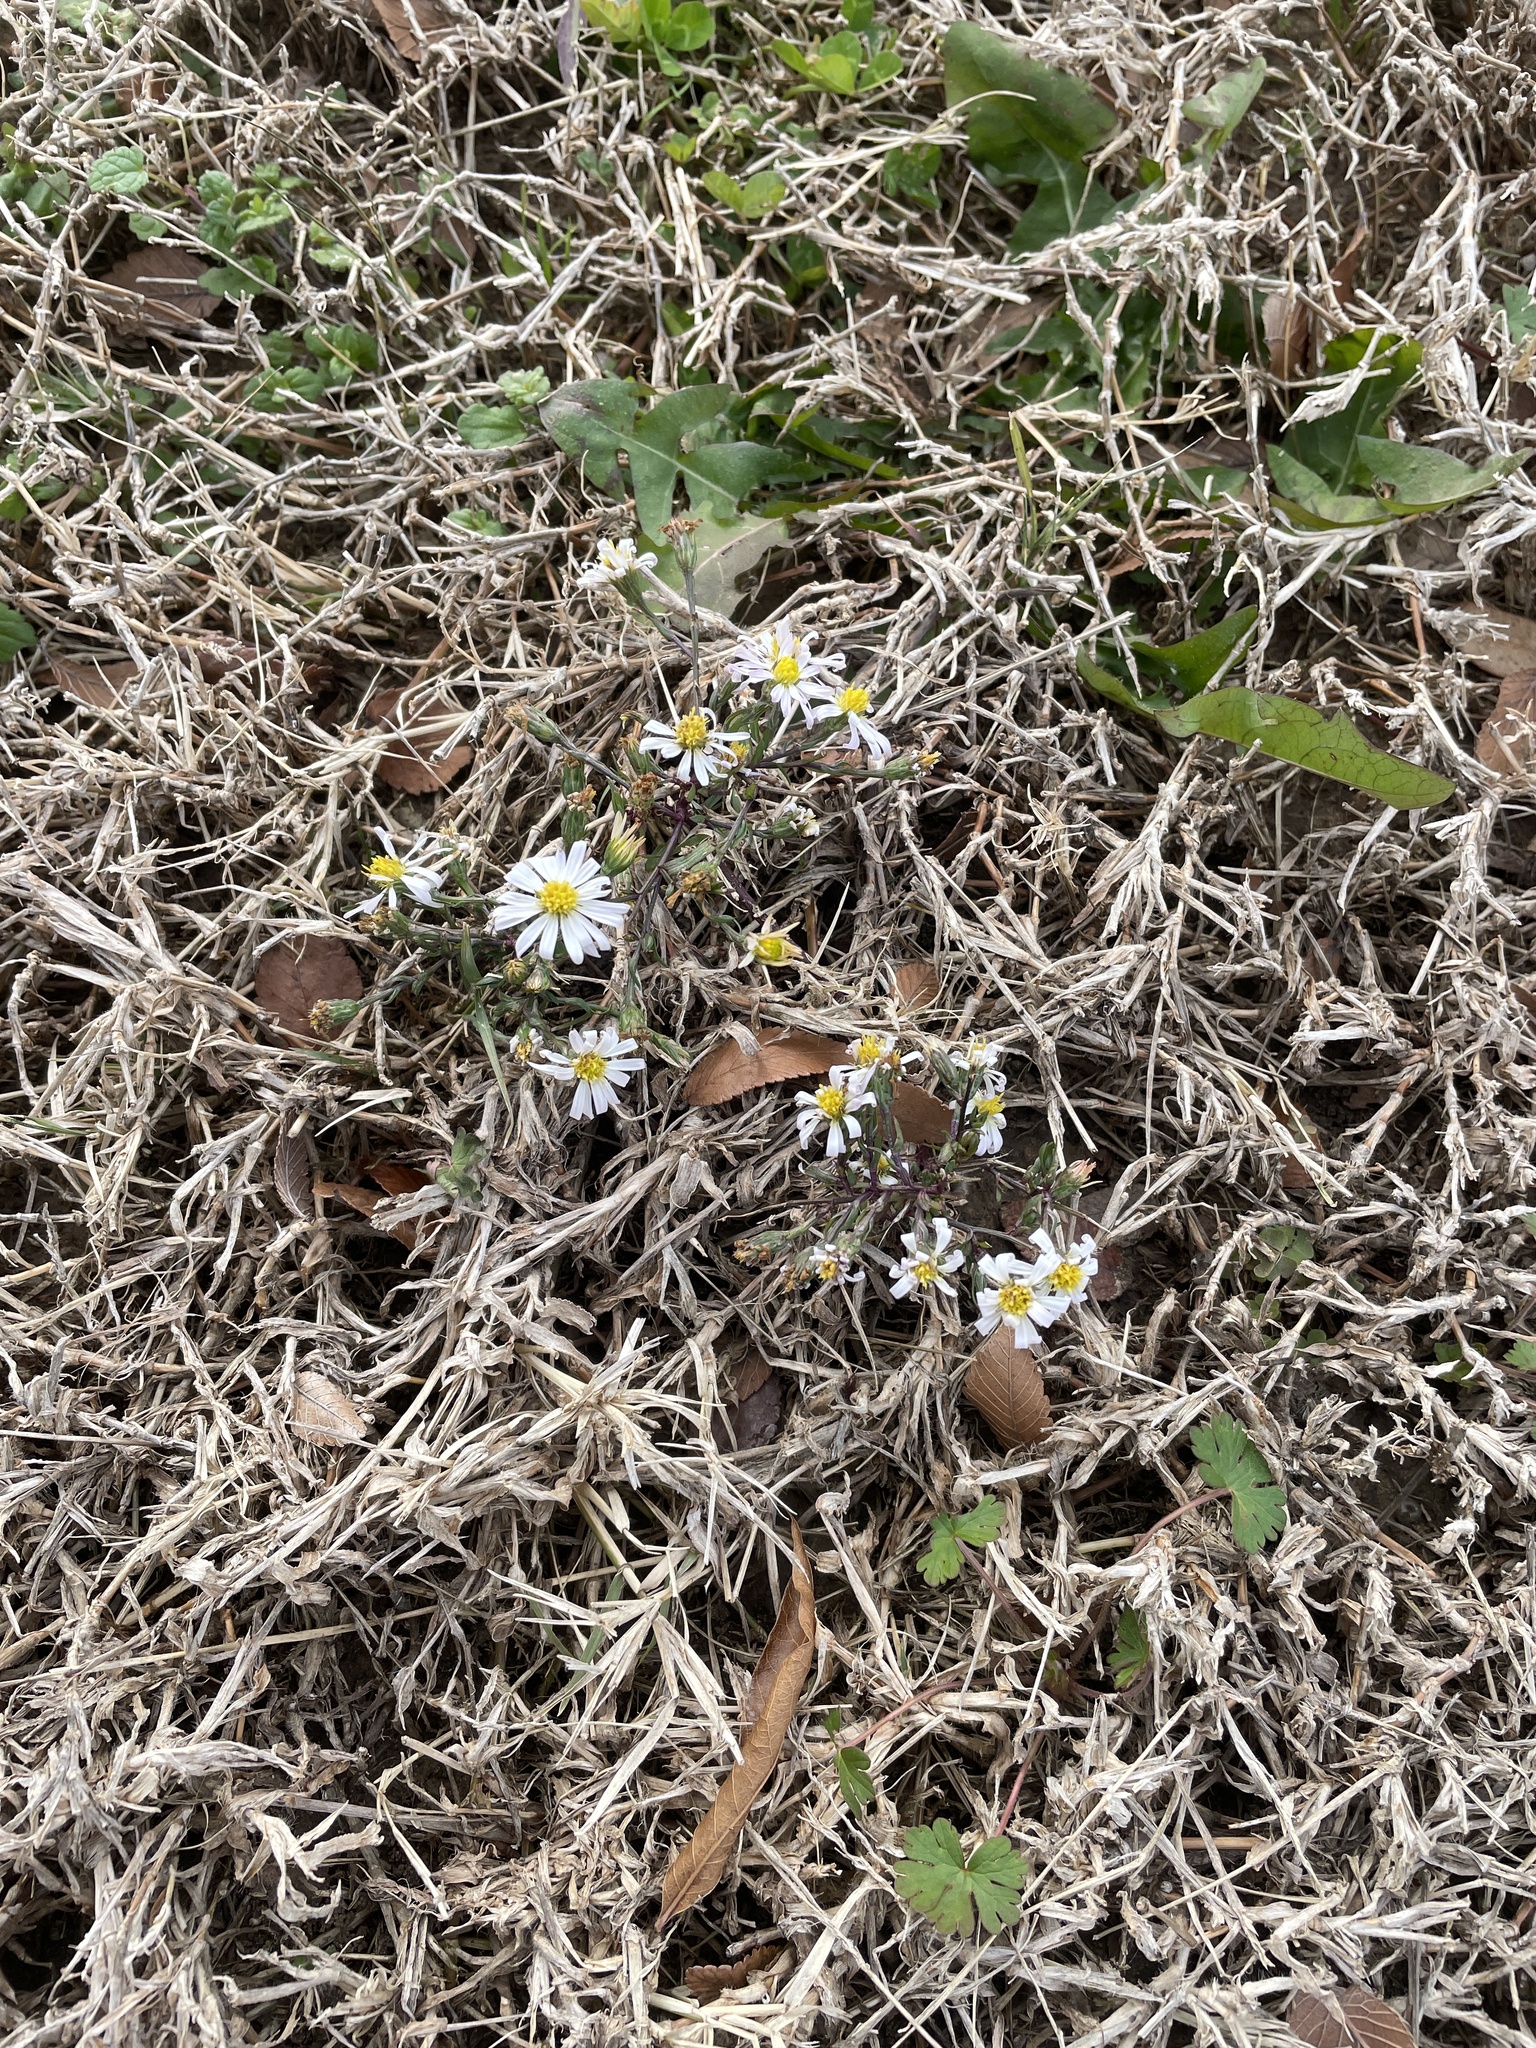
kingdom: Plantae
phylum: Tracheophyta
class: Magnoliopsida
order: Asterales
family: Asteraceae
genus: Symphyotrichum
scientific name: Symphyotrichum divaricatum
